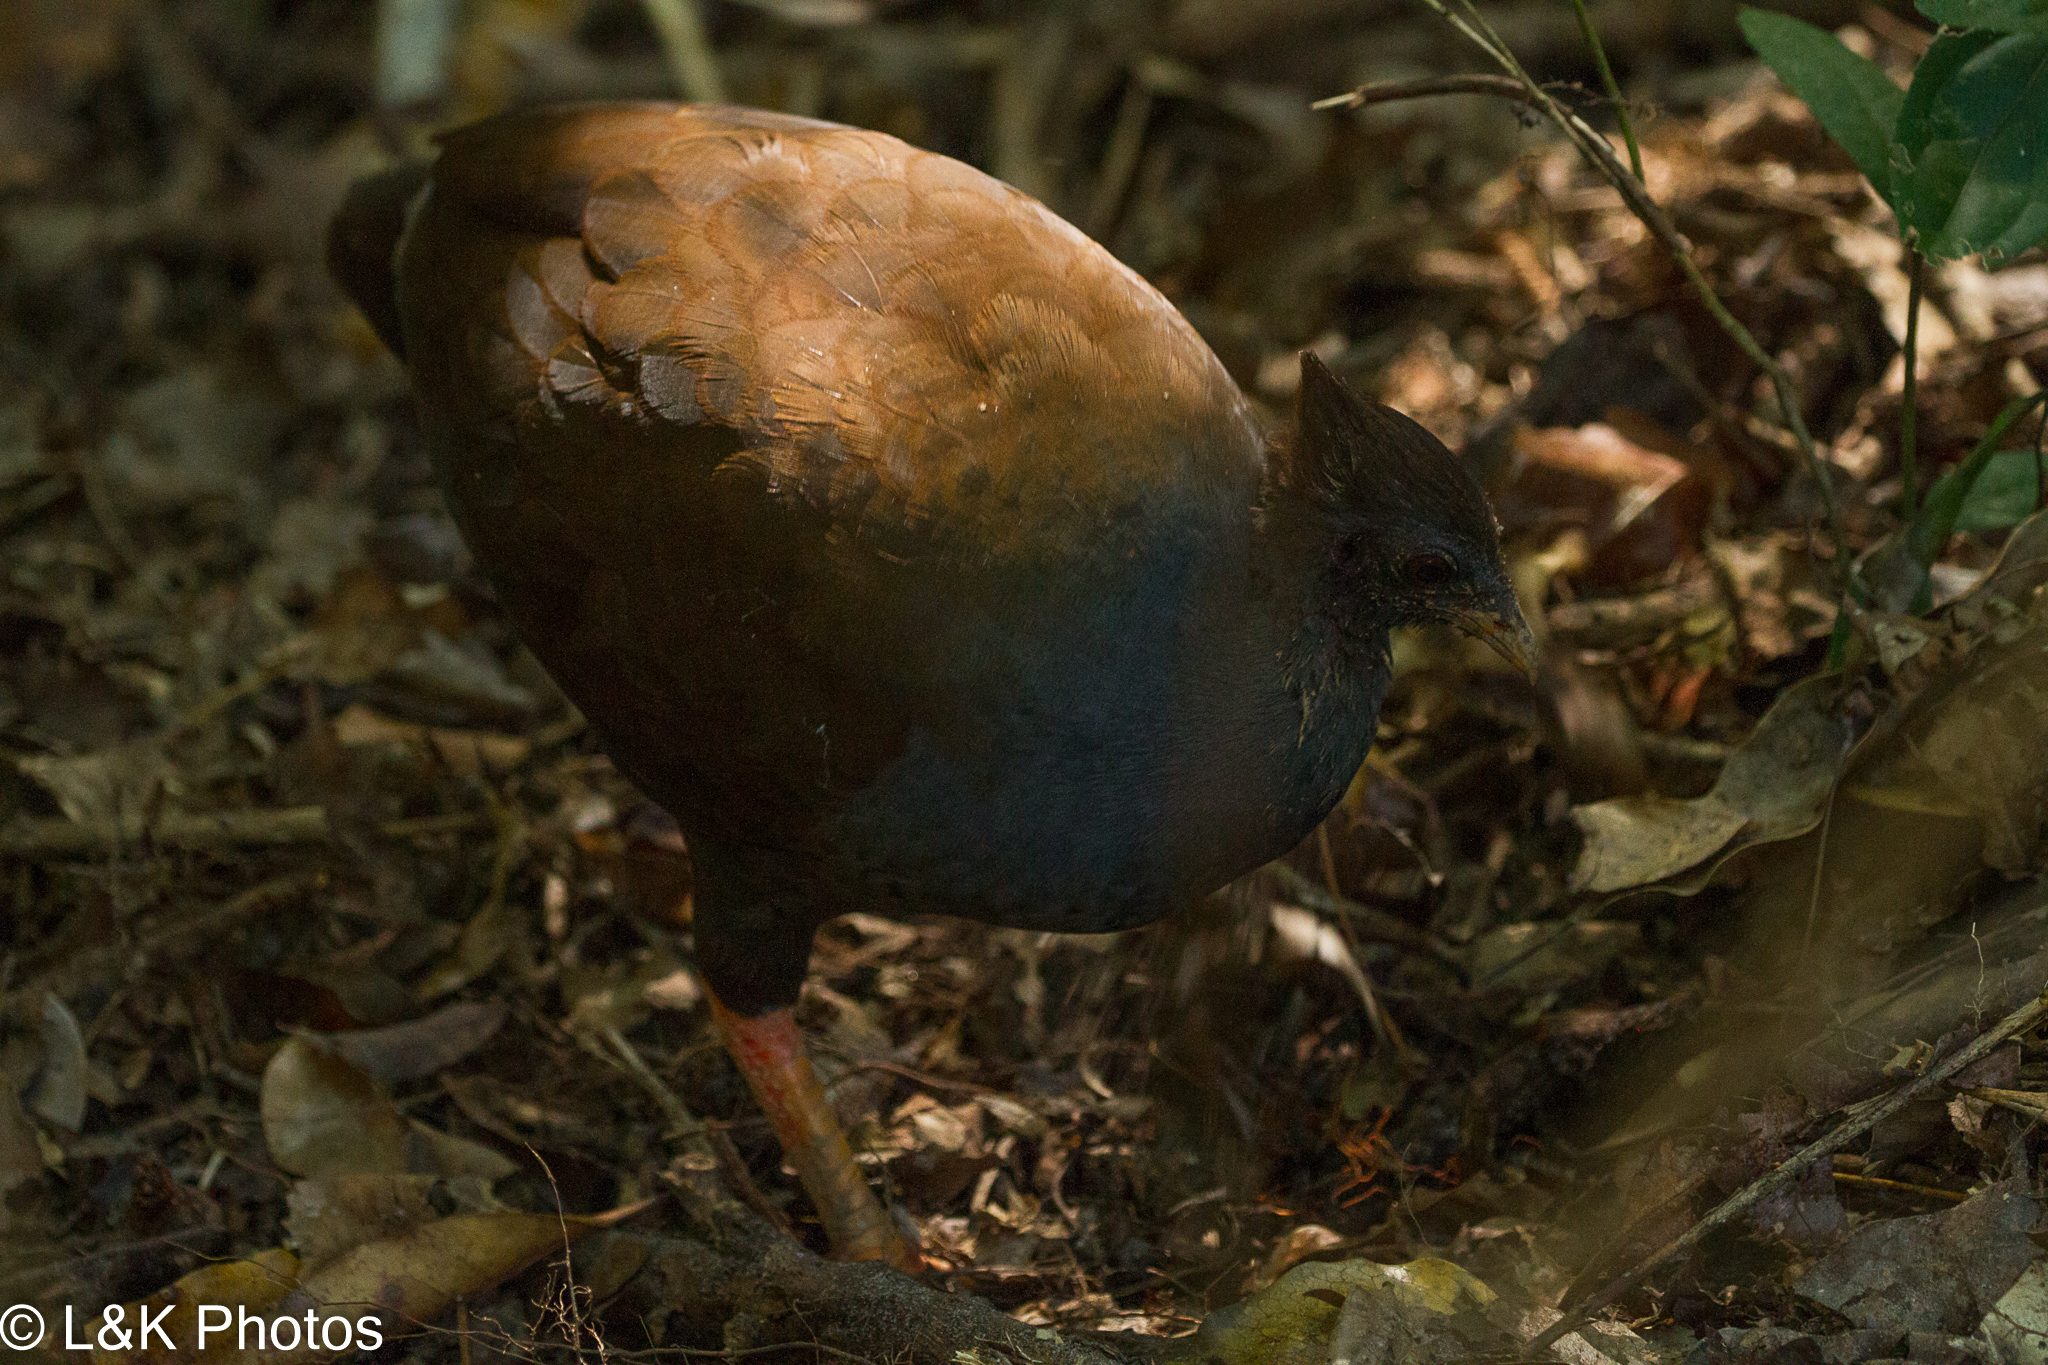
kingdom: Animalia
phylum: Chordata
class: Aves
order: Galliformes
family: Megapodiidae
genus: Megapodius
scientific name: Megapodius reinwardt
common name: Orange-footed scrubfowl
